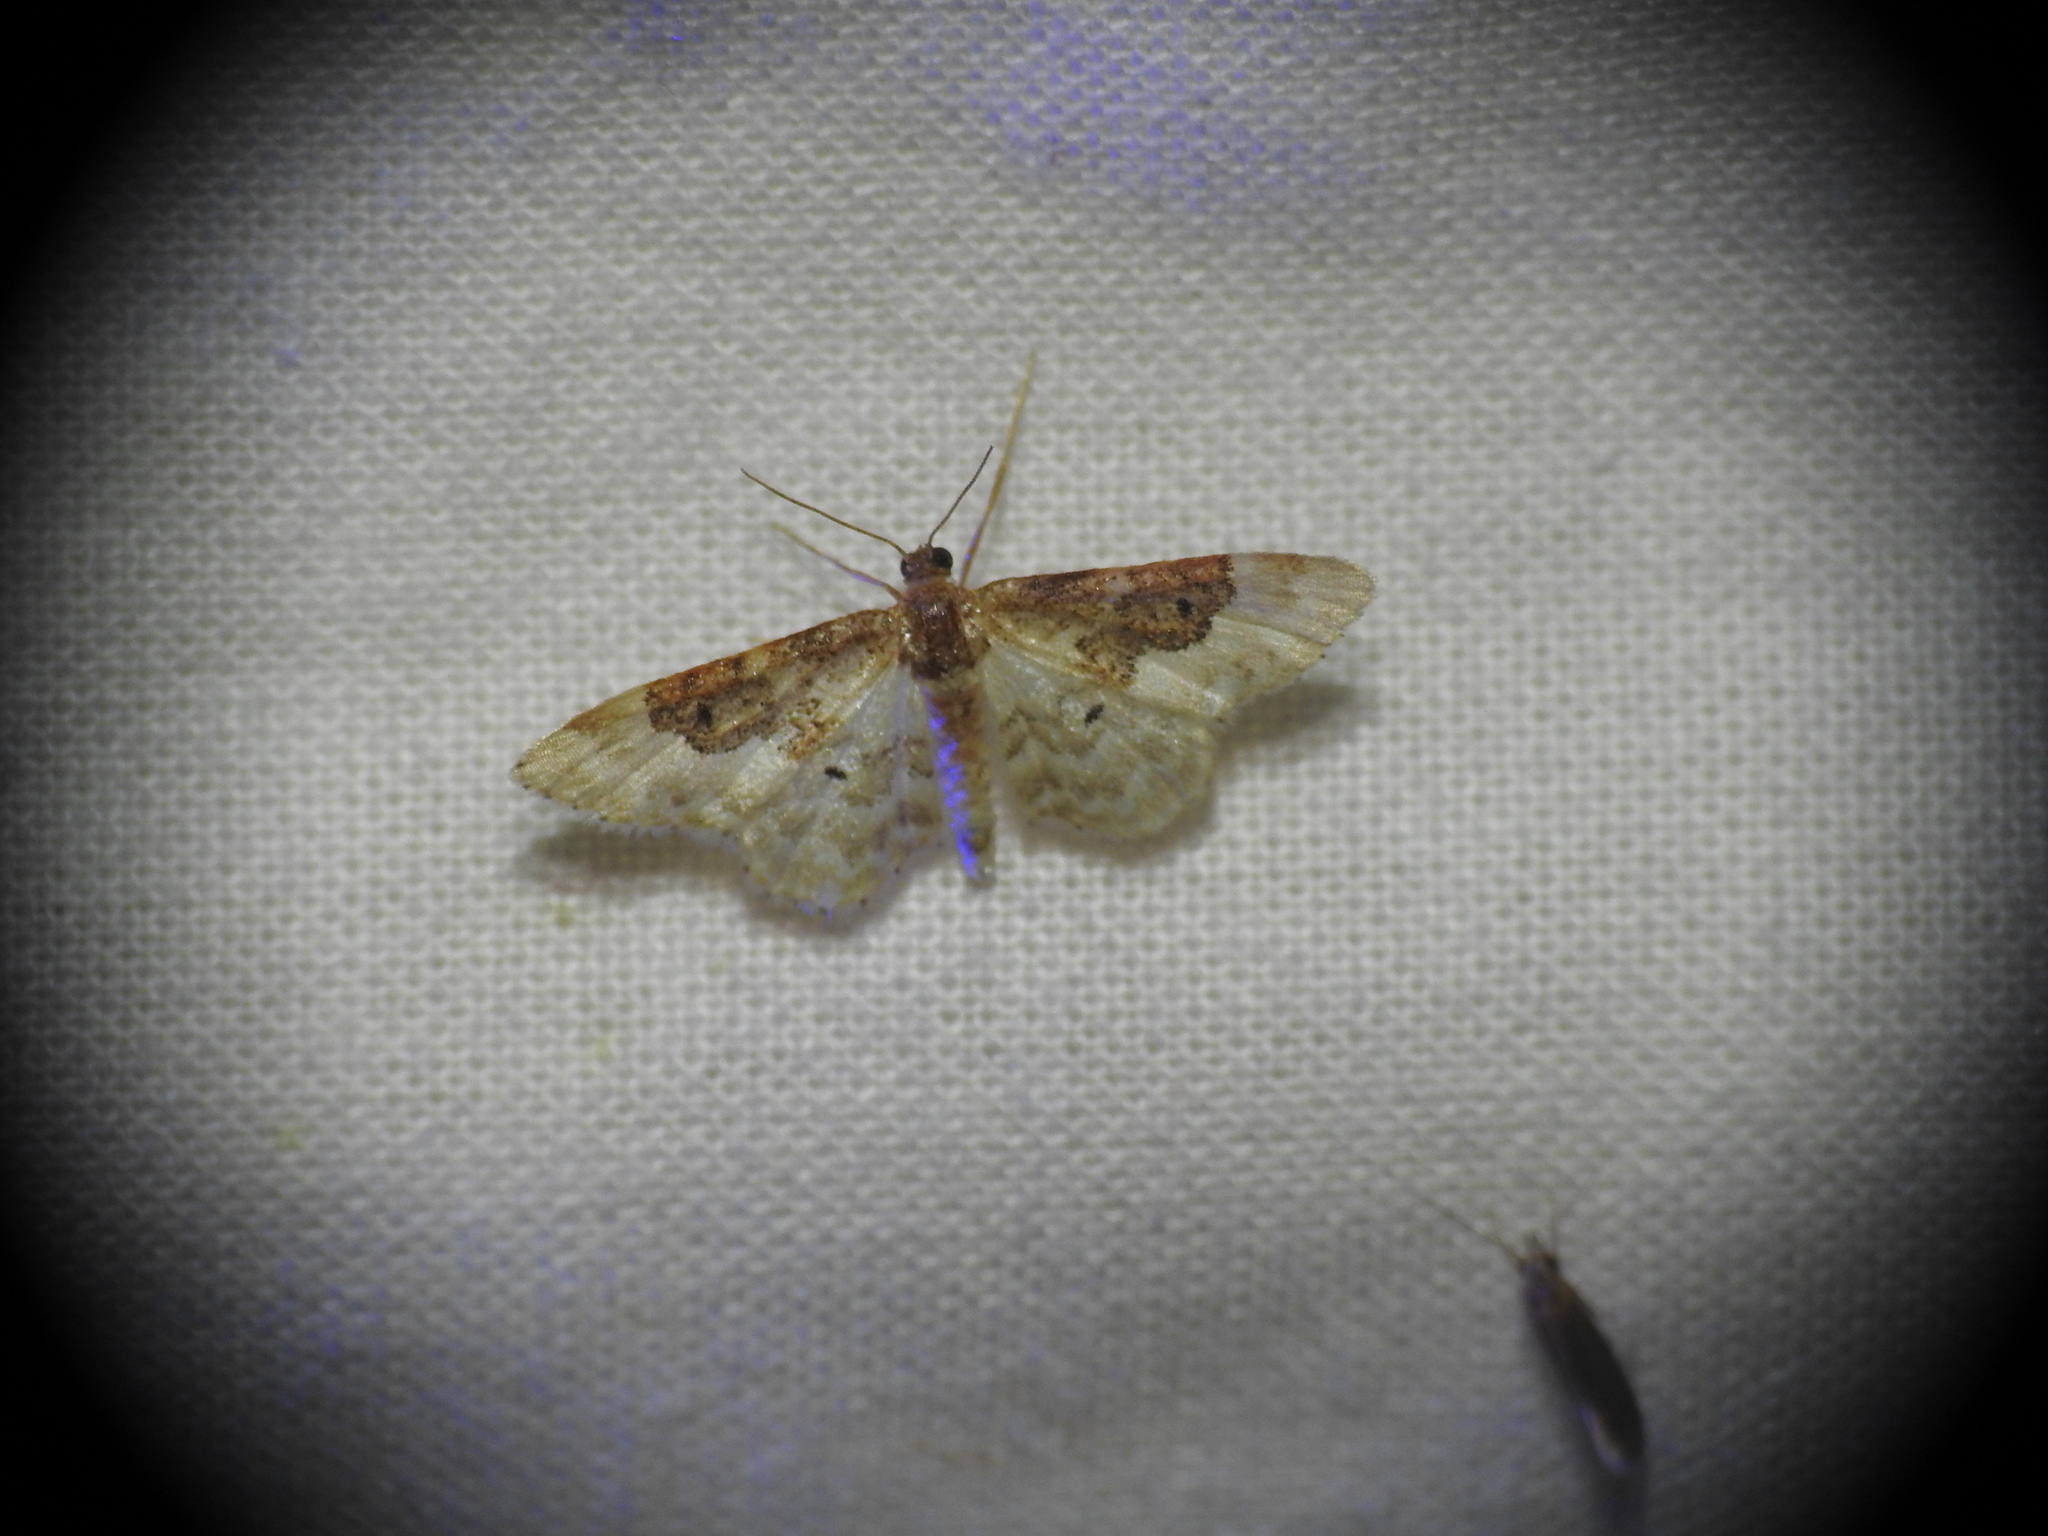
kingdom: Animalia
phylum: Arthropoda
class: Insecta
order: Lepidoptera
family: Geometridae
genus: Idaea
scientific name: Idaea rusticata
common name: Least carpet
